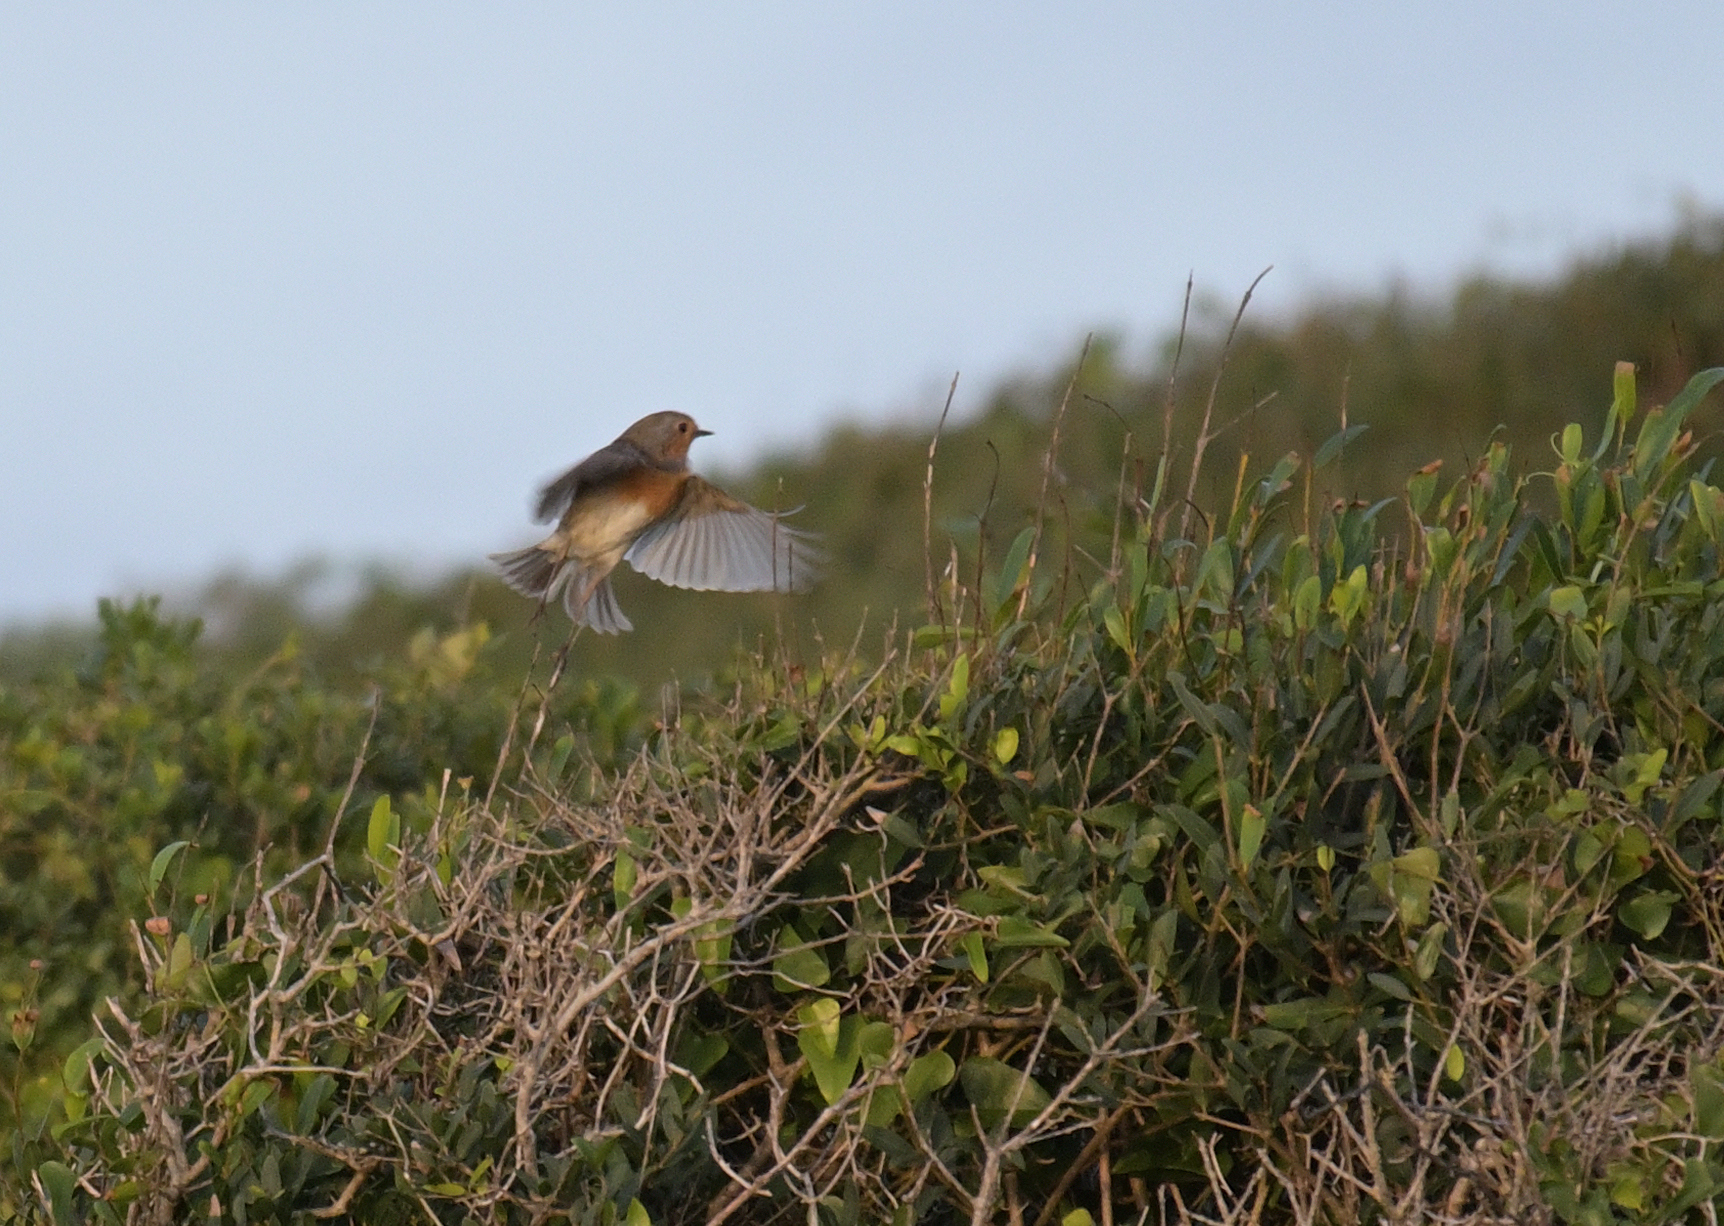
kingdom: Animalia
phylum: Chordata
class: Aves
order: Passeriformes
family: Muscicapidae
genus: Erithacus
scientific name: Erithacus rubecula
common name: European robin
